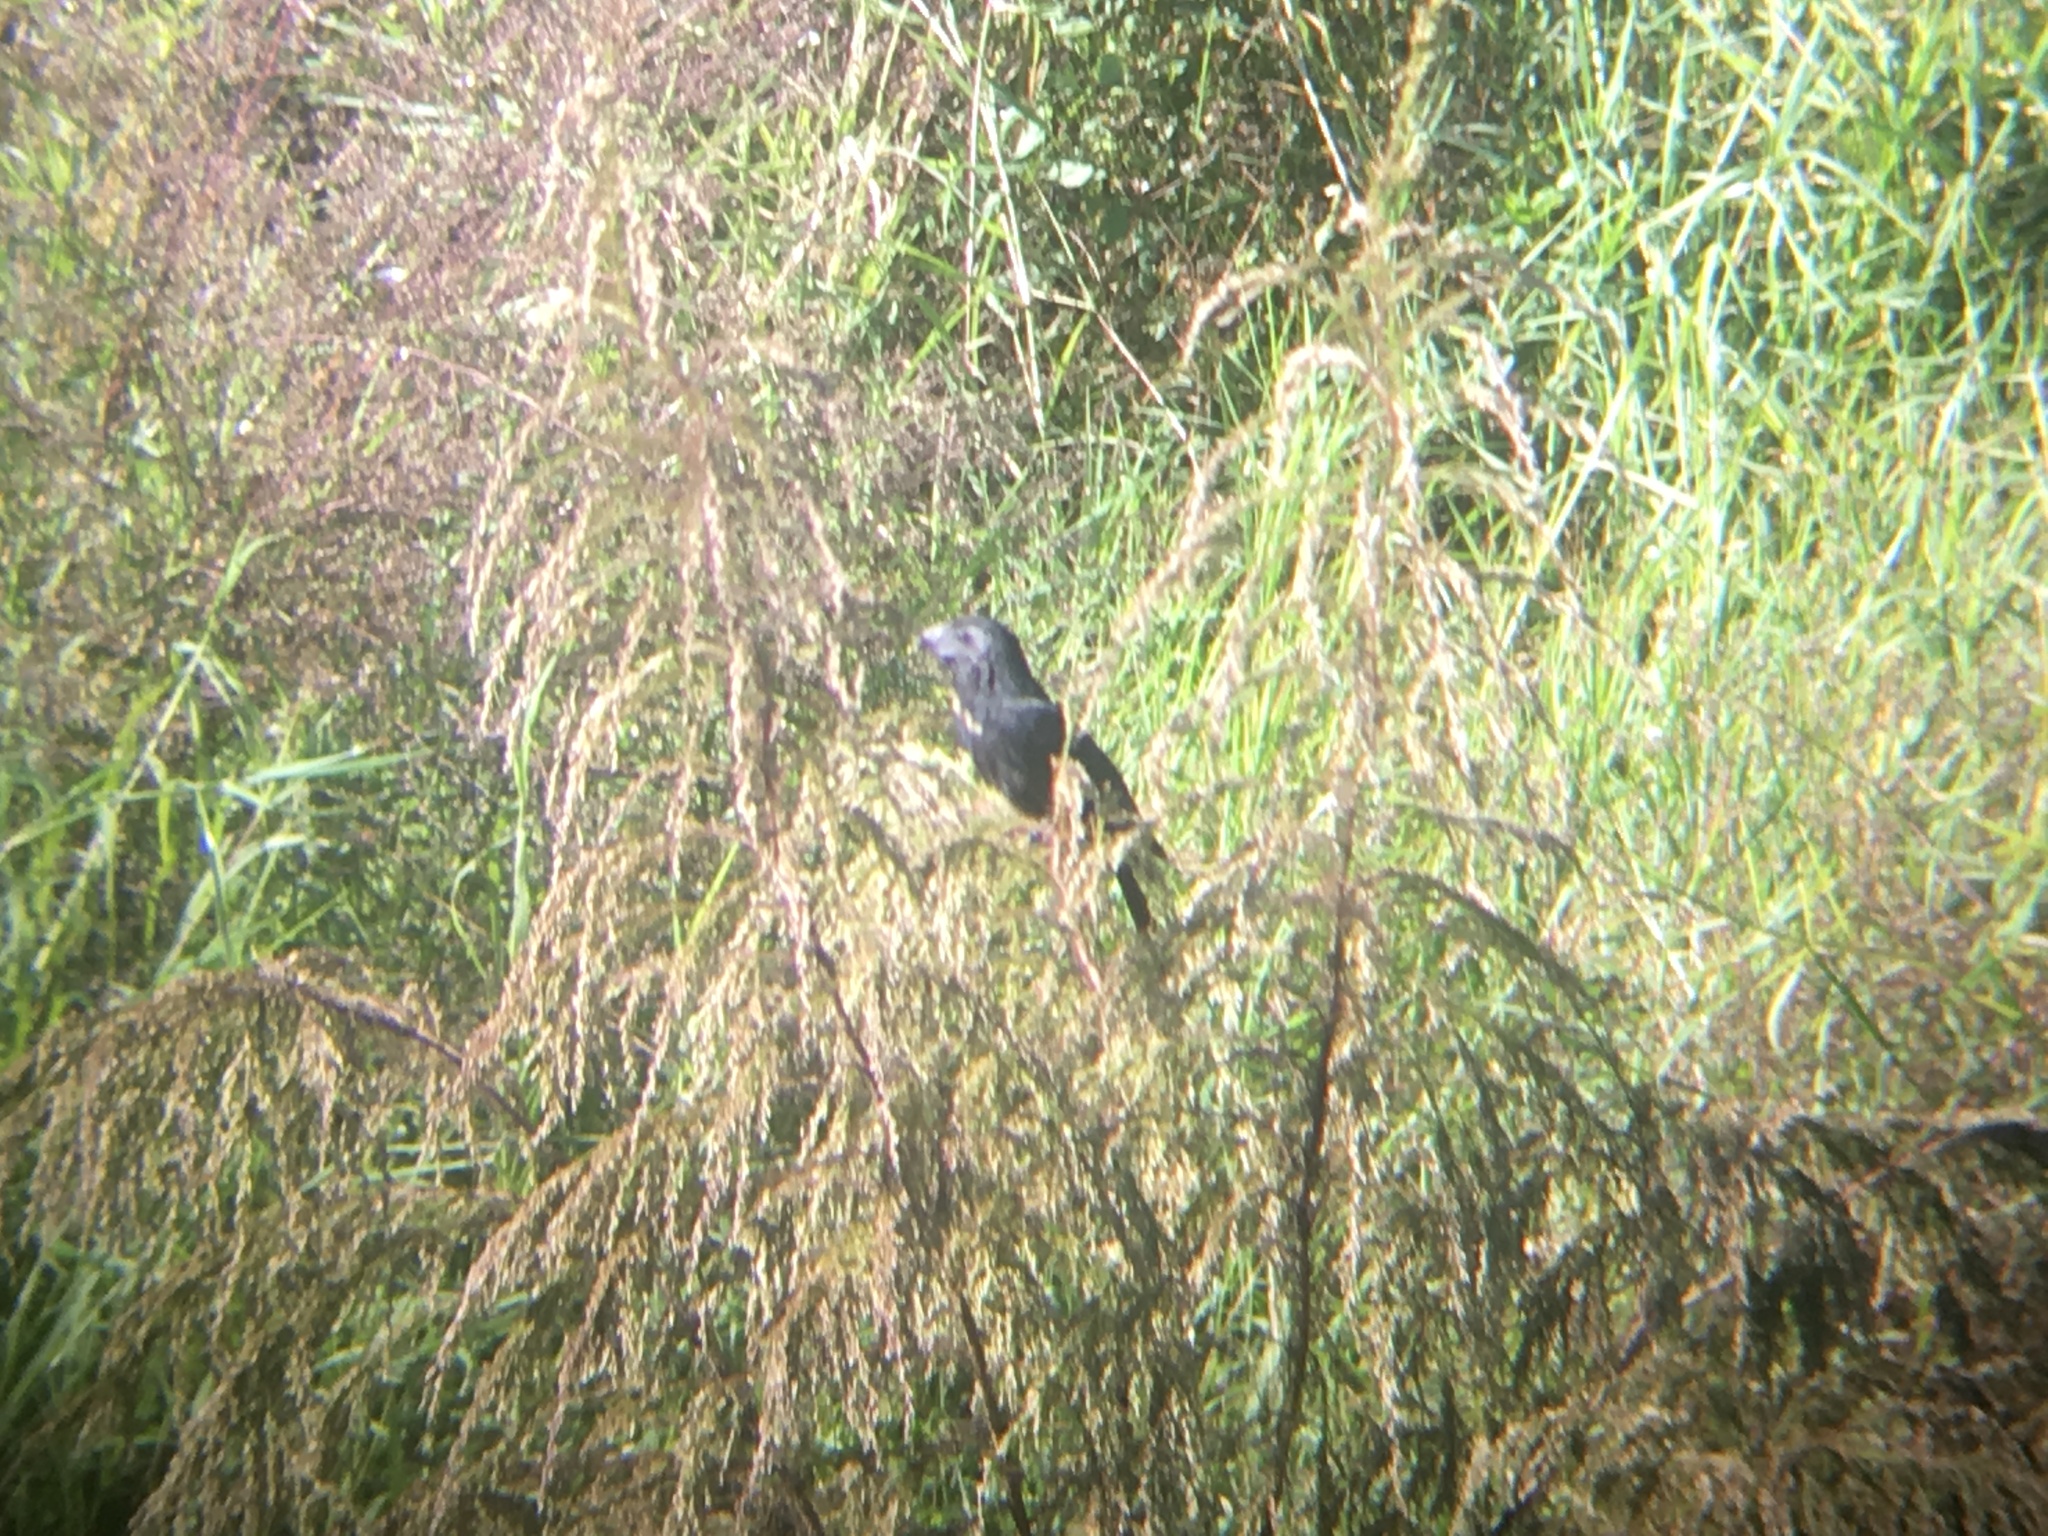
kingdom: Animalia
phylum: Chordata
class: Aves
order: Cuculiformes
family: Cuculidae
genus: Crotophaga
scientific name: Crotophaga sulcirostris
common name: Groove-billed ani
